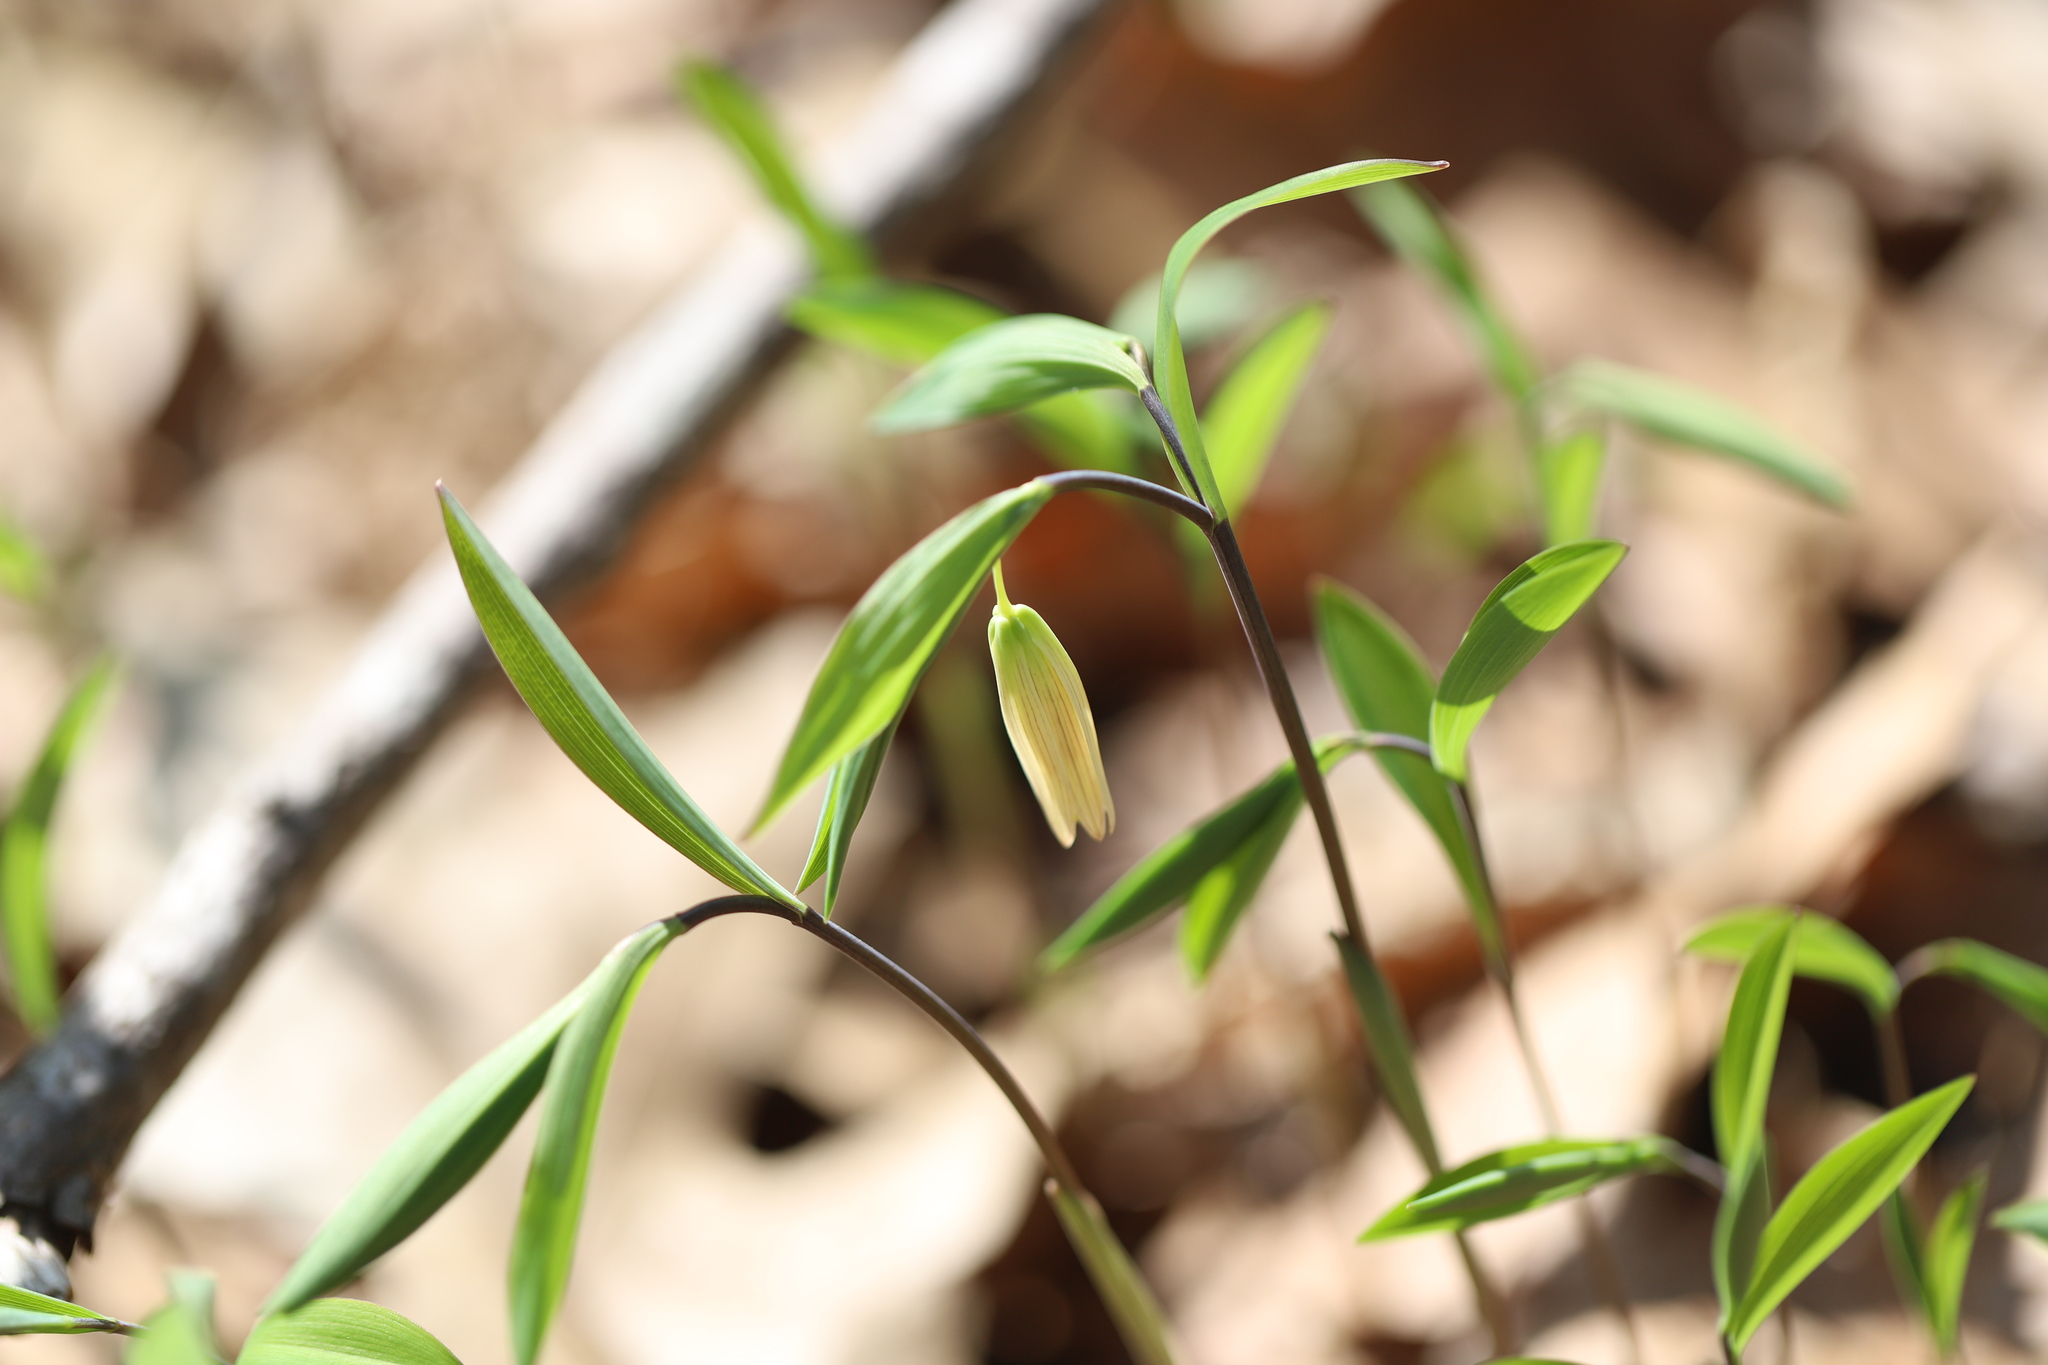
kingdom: Plantae
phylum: Tracheophyta
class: Liliopsida
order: Liliales
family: Colchicaceae
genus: Uvularia
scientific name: Uvularia sessilifolia
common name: Straw-lily
